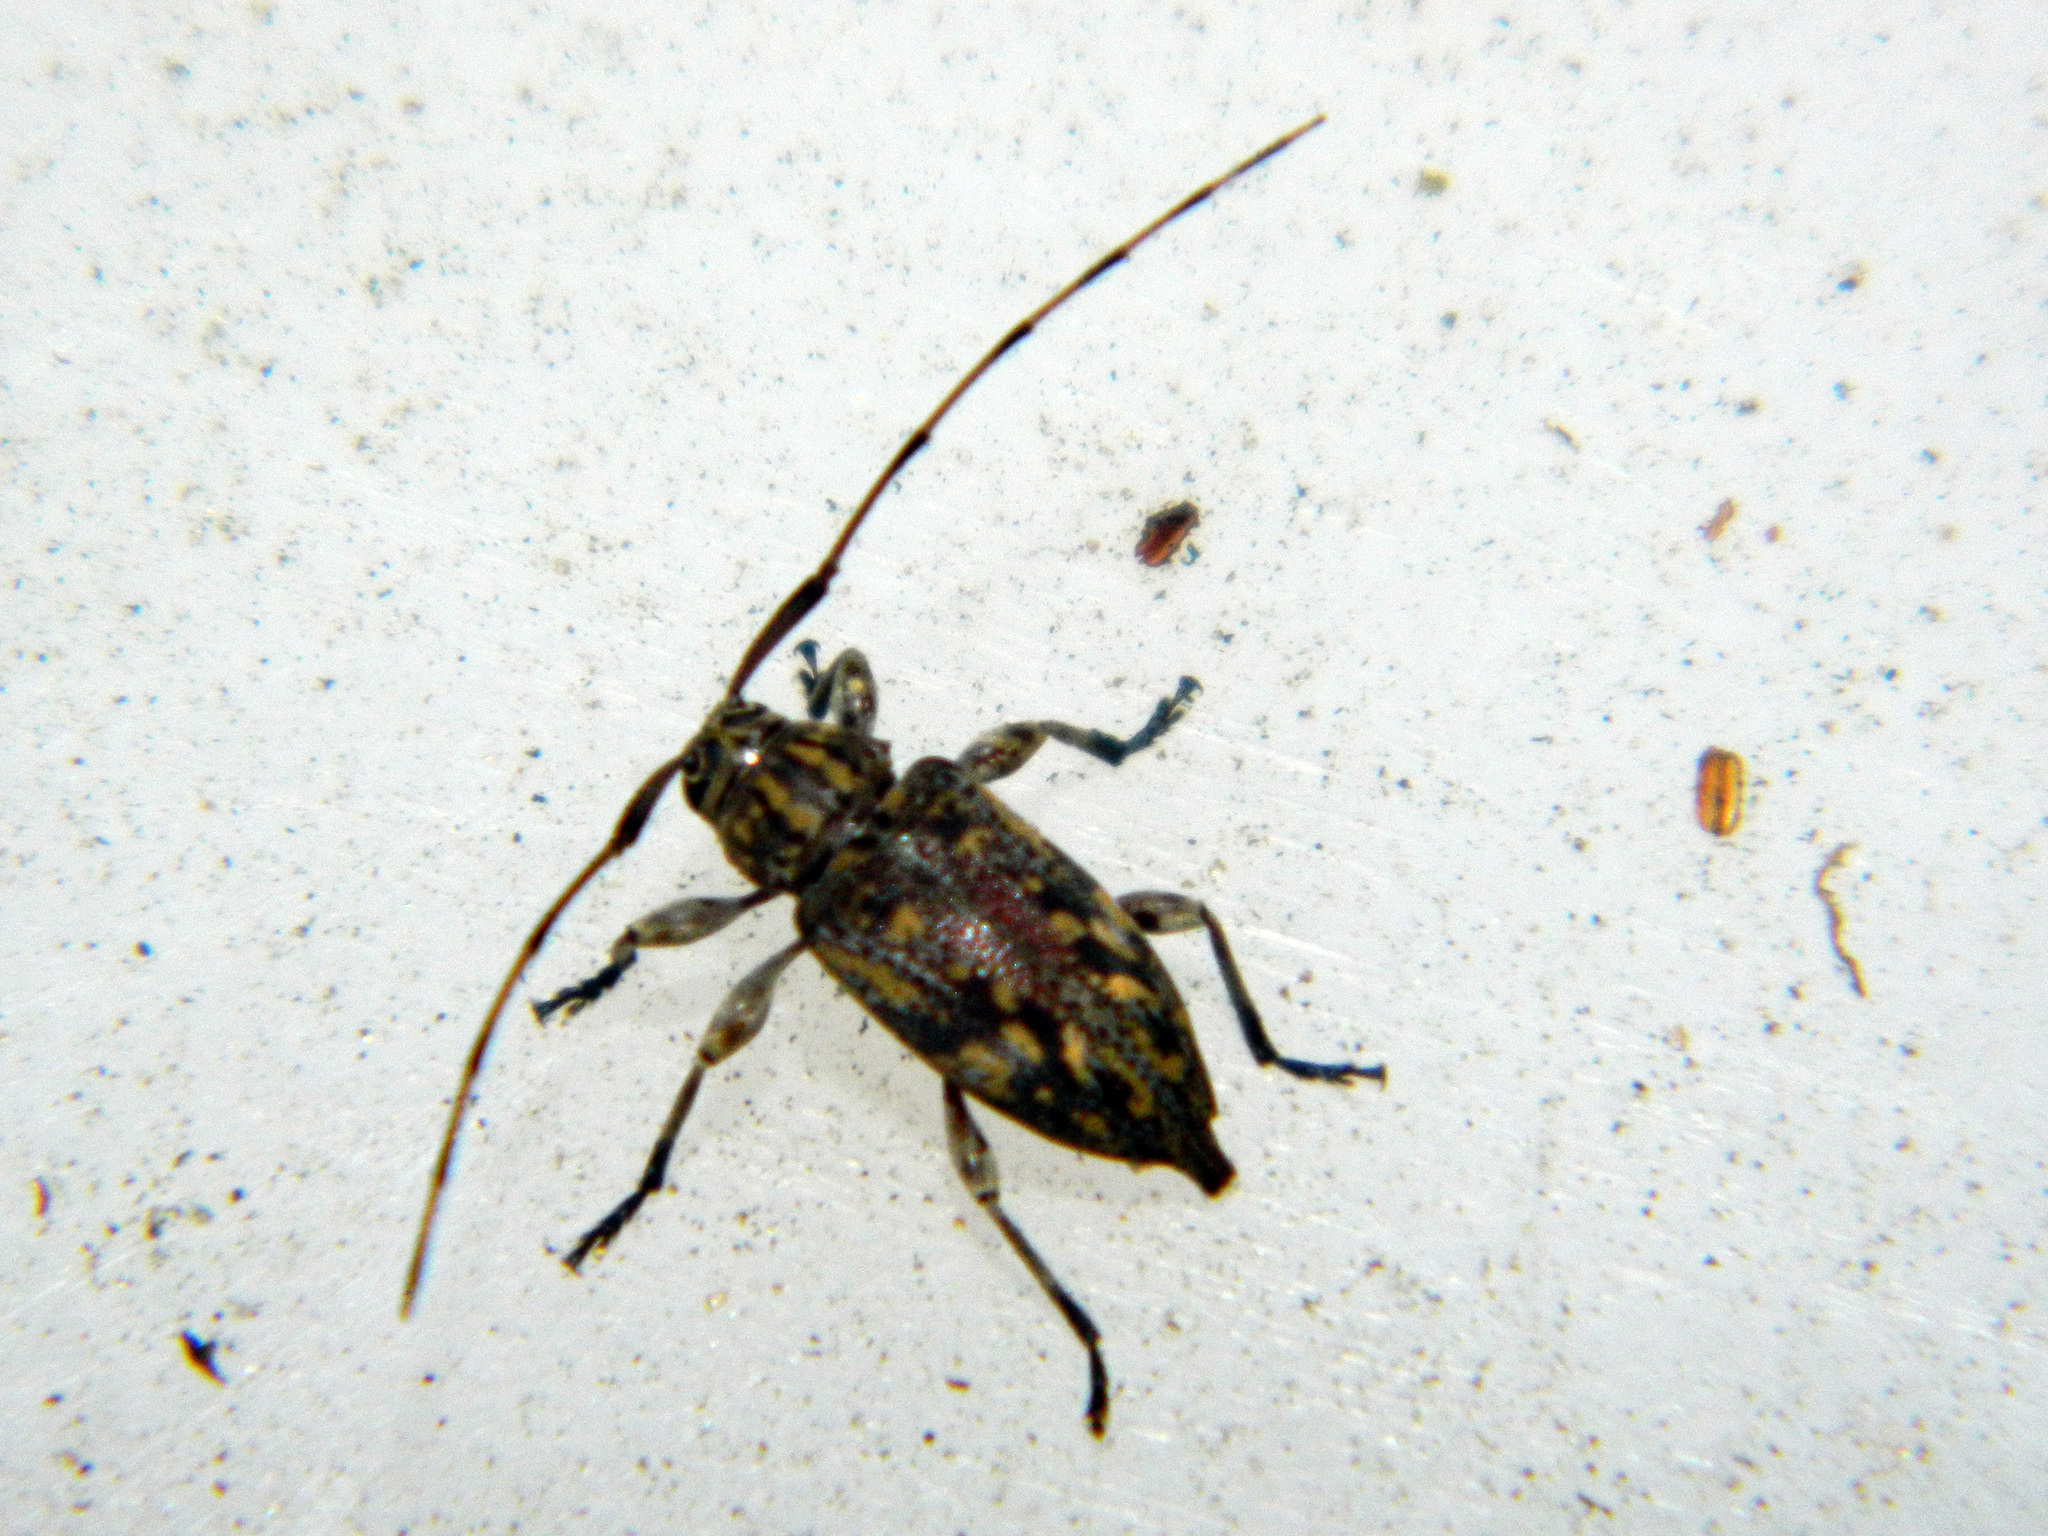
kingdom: Animalia
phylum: Arthropoda
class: Insecta
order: Coleoptera
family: Cerambycidae
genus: Atrypanius
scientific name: Atrypanius haldemani
